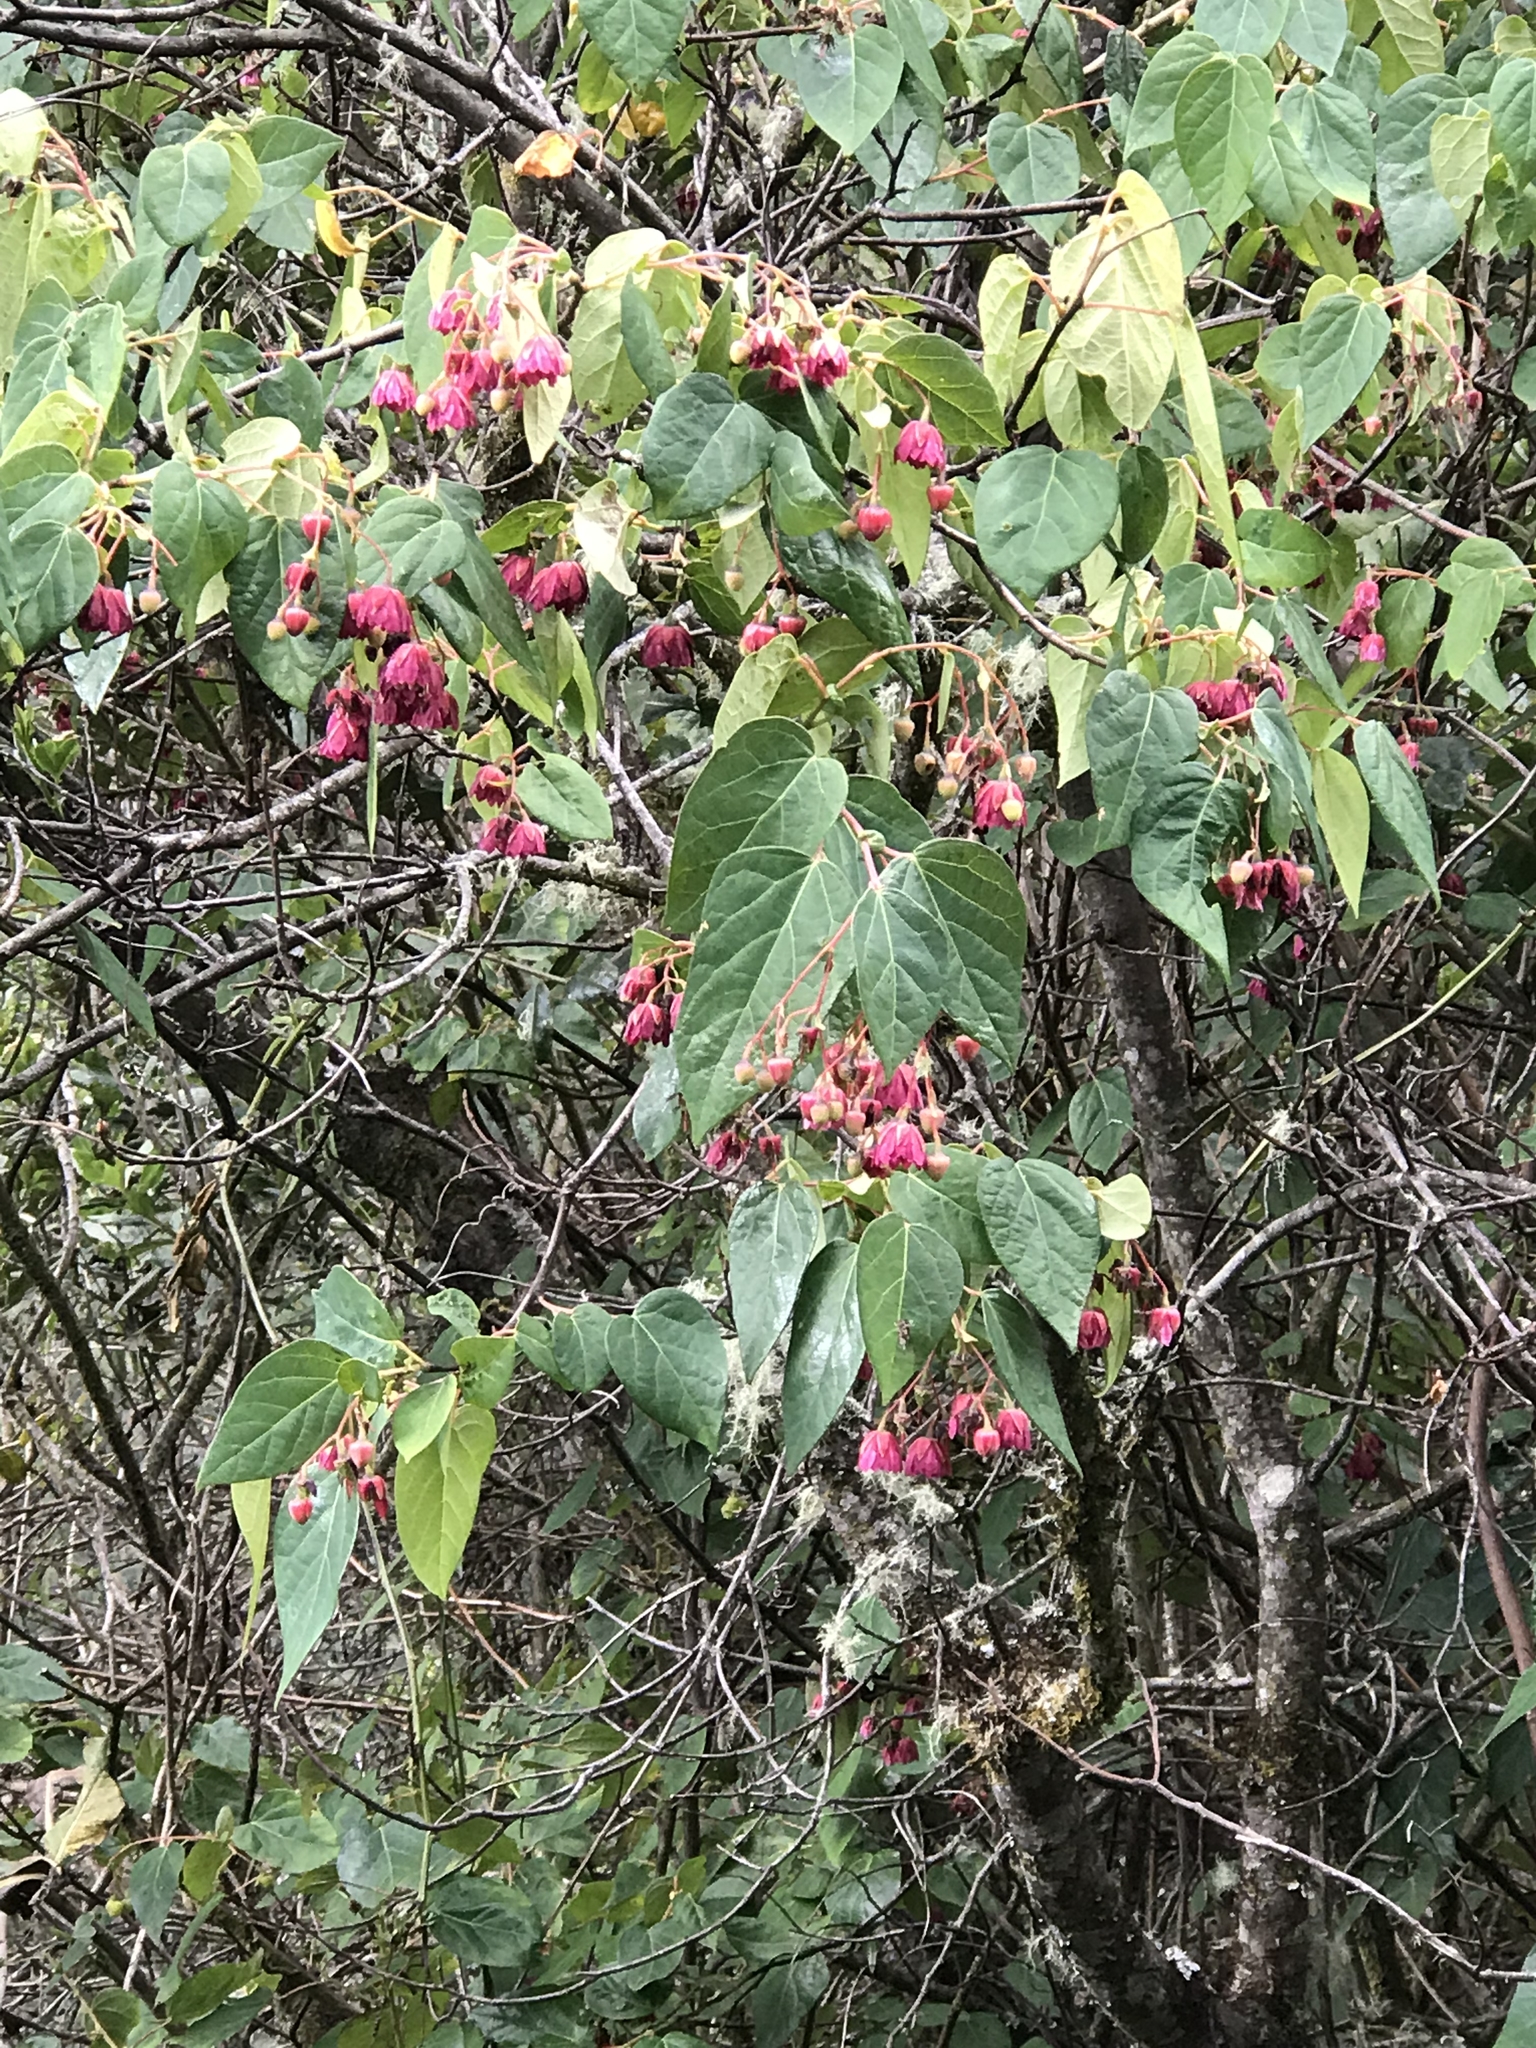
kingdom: Plantae
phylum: Tracheophyta
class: Magnoliopsida
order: Oxalidales
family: Elaeocarpaceae
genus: Vallea
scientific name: Vallea stipularis
